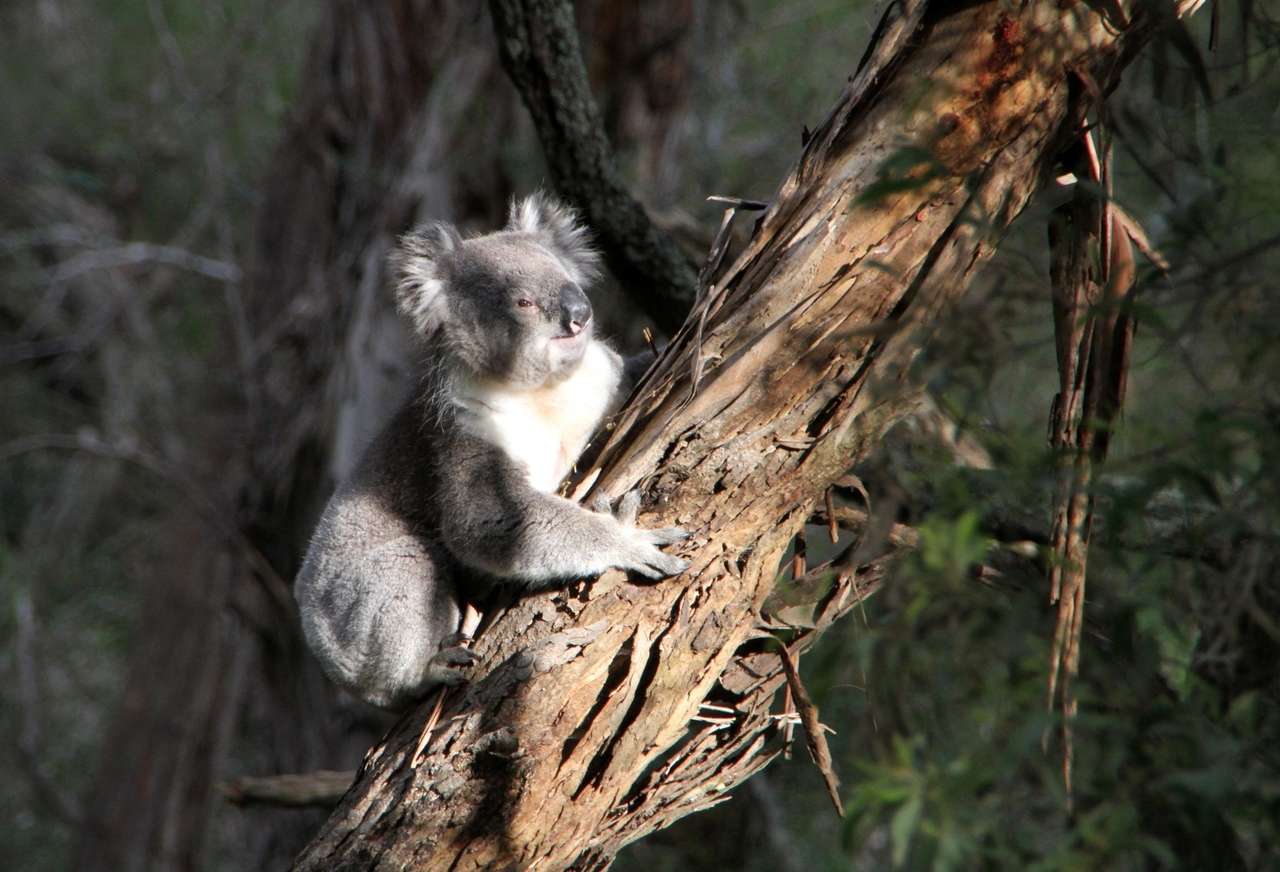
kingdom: Animalia
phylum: Chordata
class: Mammalia
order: Diprotodontia
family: Phascolarctidae
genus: Phascolarctos
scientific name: Phascolarctos cinereus
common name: Koala
